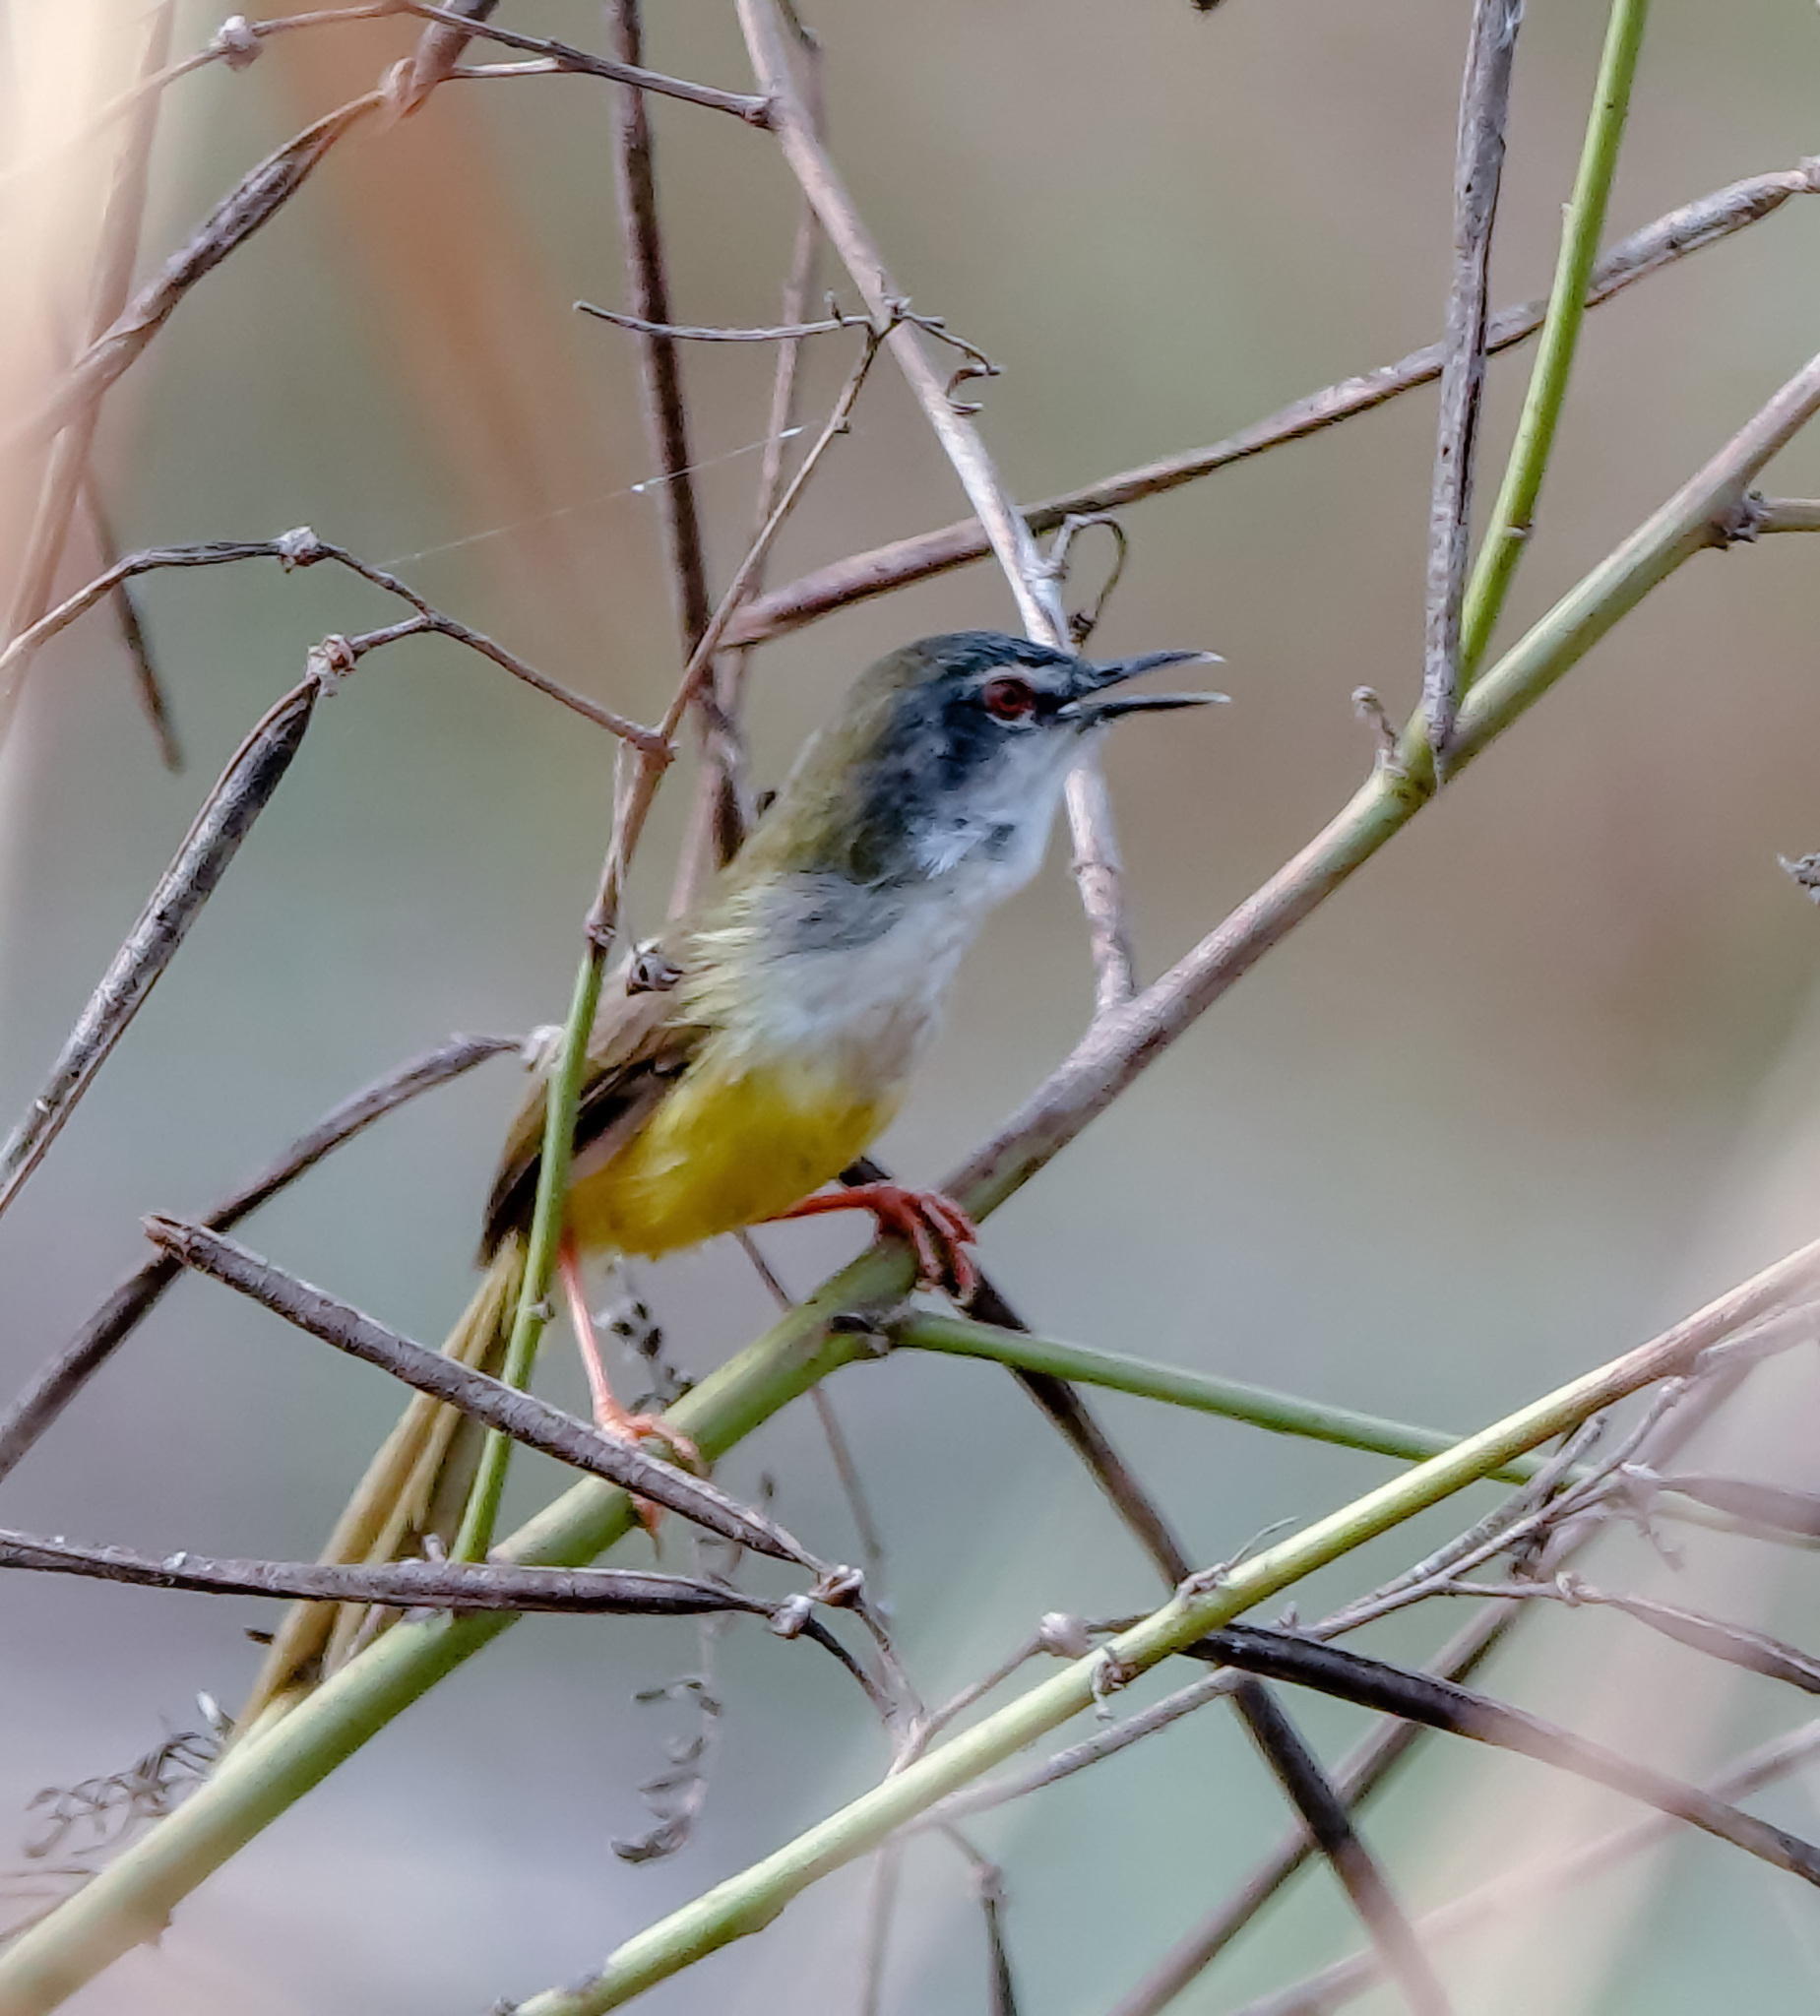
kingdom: Animalia
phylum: Chordata
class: Aves
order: Passeriformes
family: Cisticolidae
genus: Prinia
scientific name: Prinia flaviventris
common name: Yellow-bellied prinia
